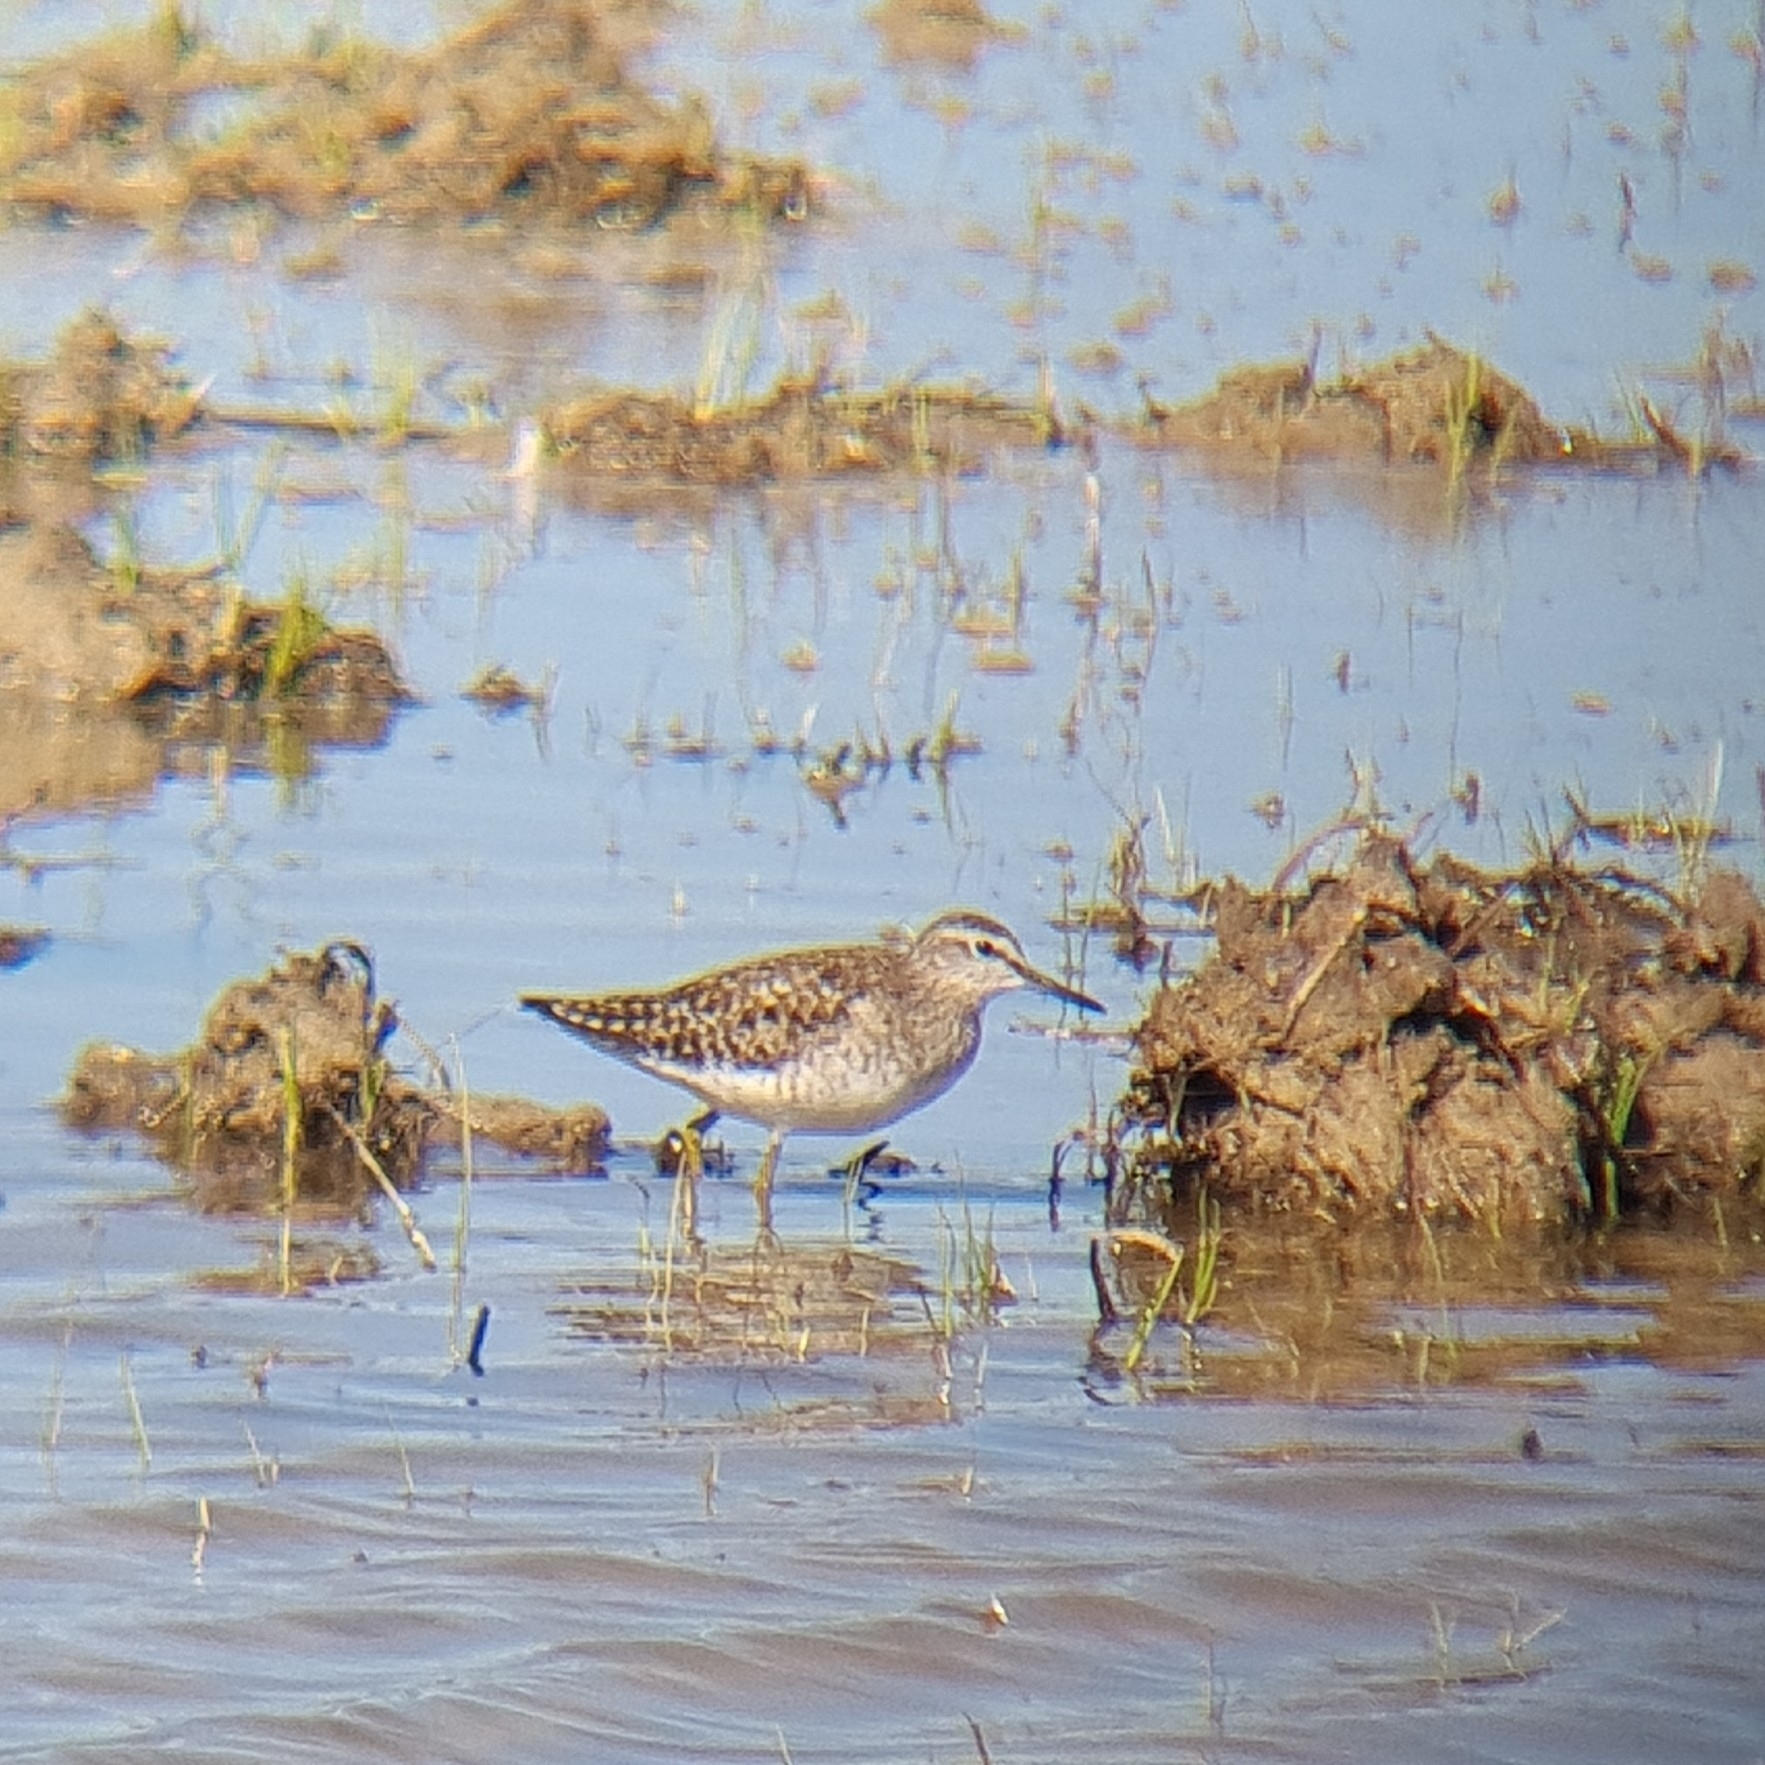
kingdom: Animalia
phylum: Chordata
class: Aves
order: Charadriiformes
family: Scolopacidae
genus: Tringa
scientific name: Tringa glareola
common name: Wood sandpiper
